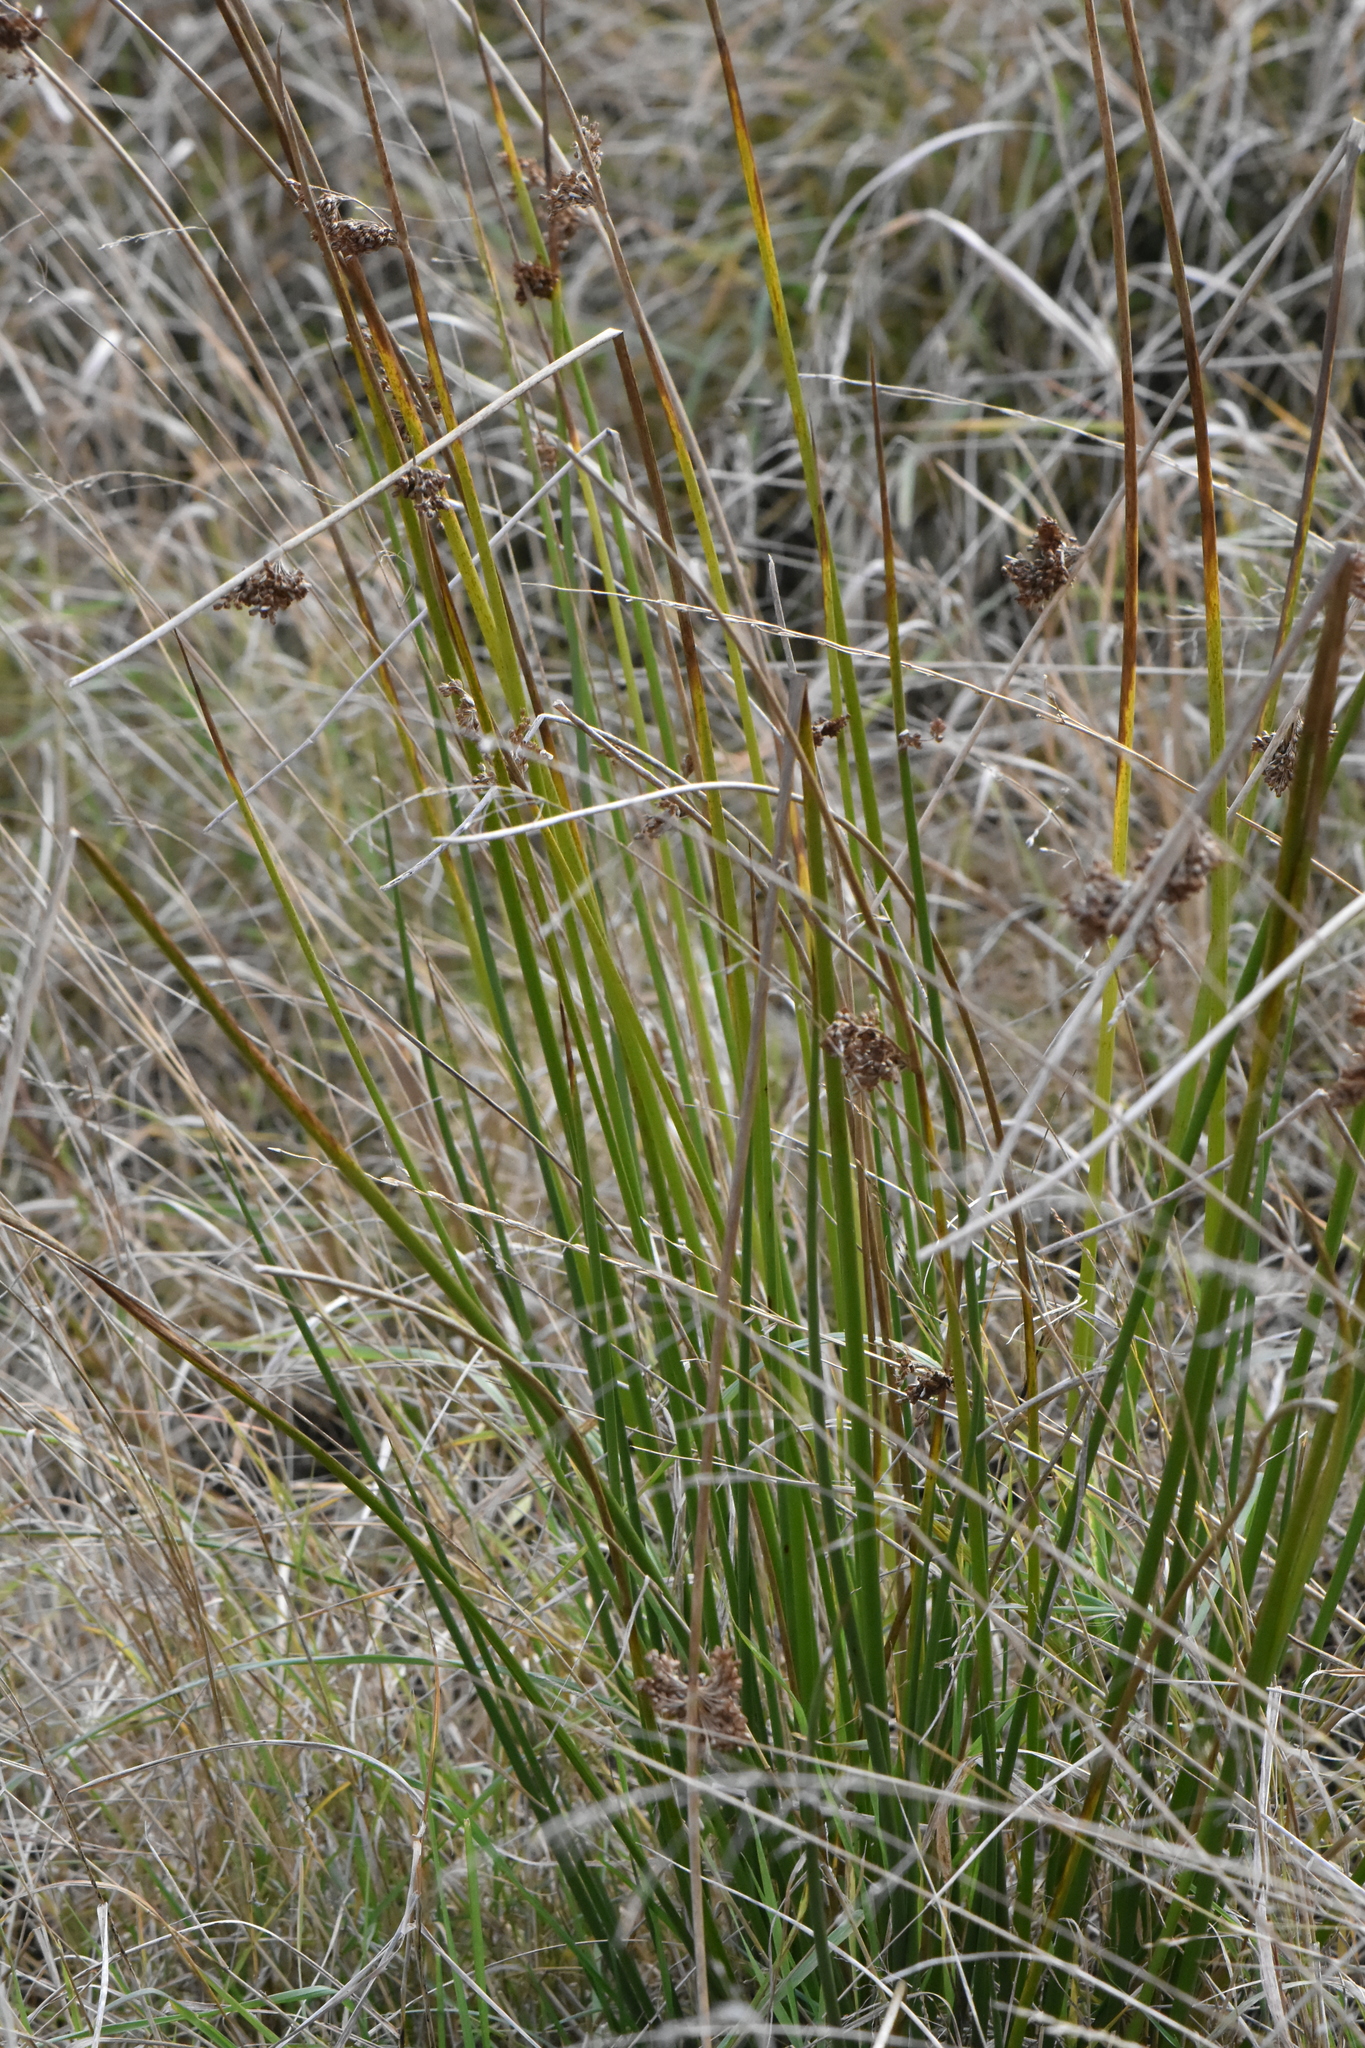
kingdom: Plantae
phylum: Tracheophyta
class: Liliopsida
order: Poales
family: Juncaceae
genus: Juncus
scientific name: Juncus effusus
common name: Soft rush
